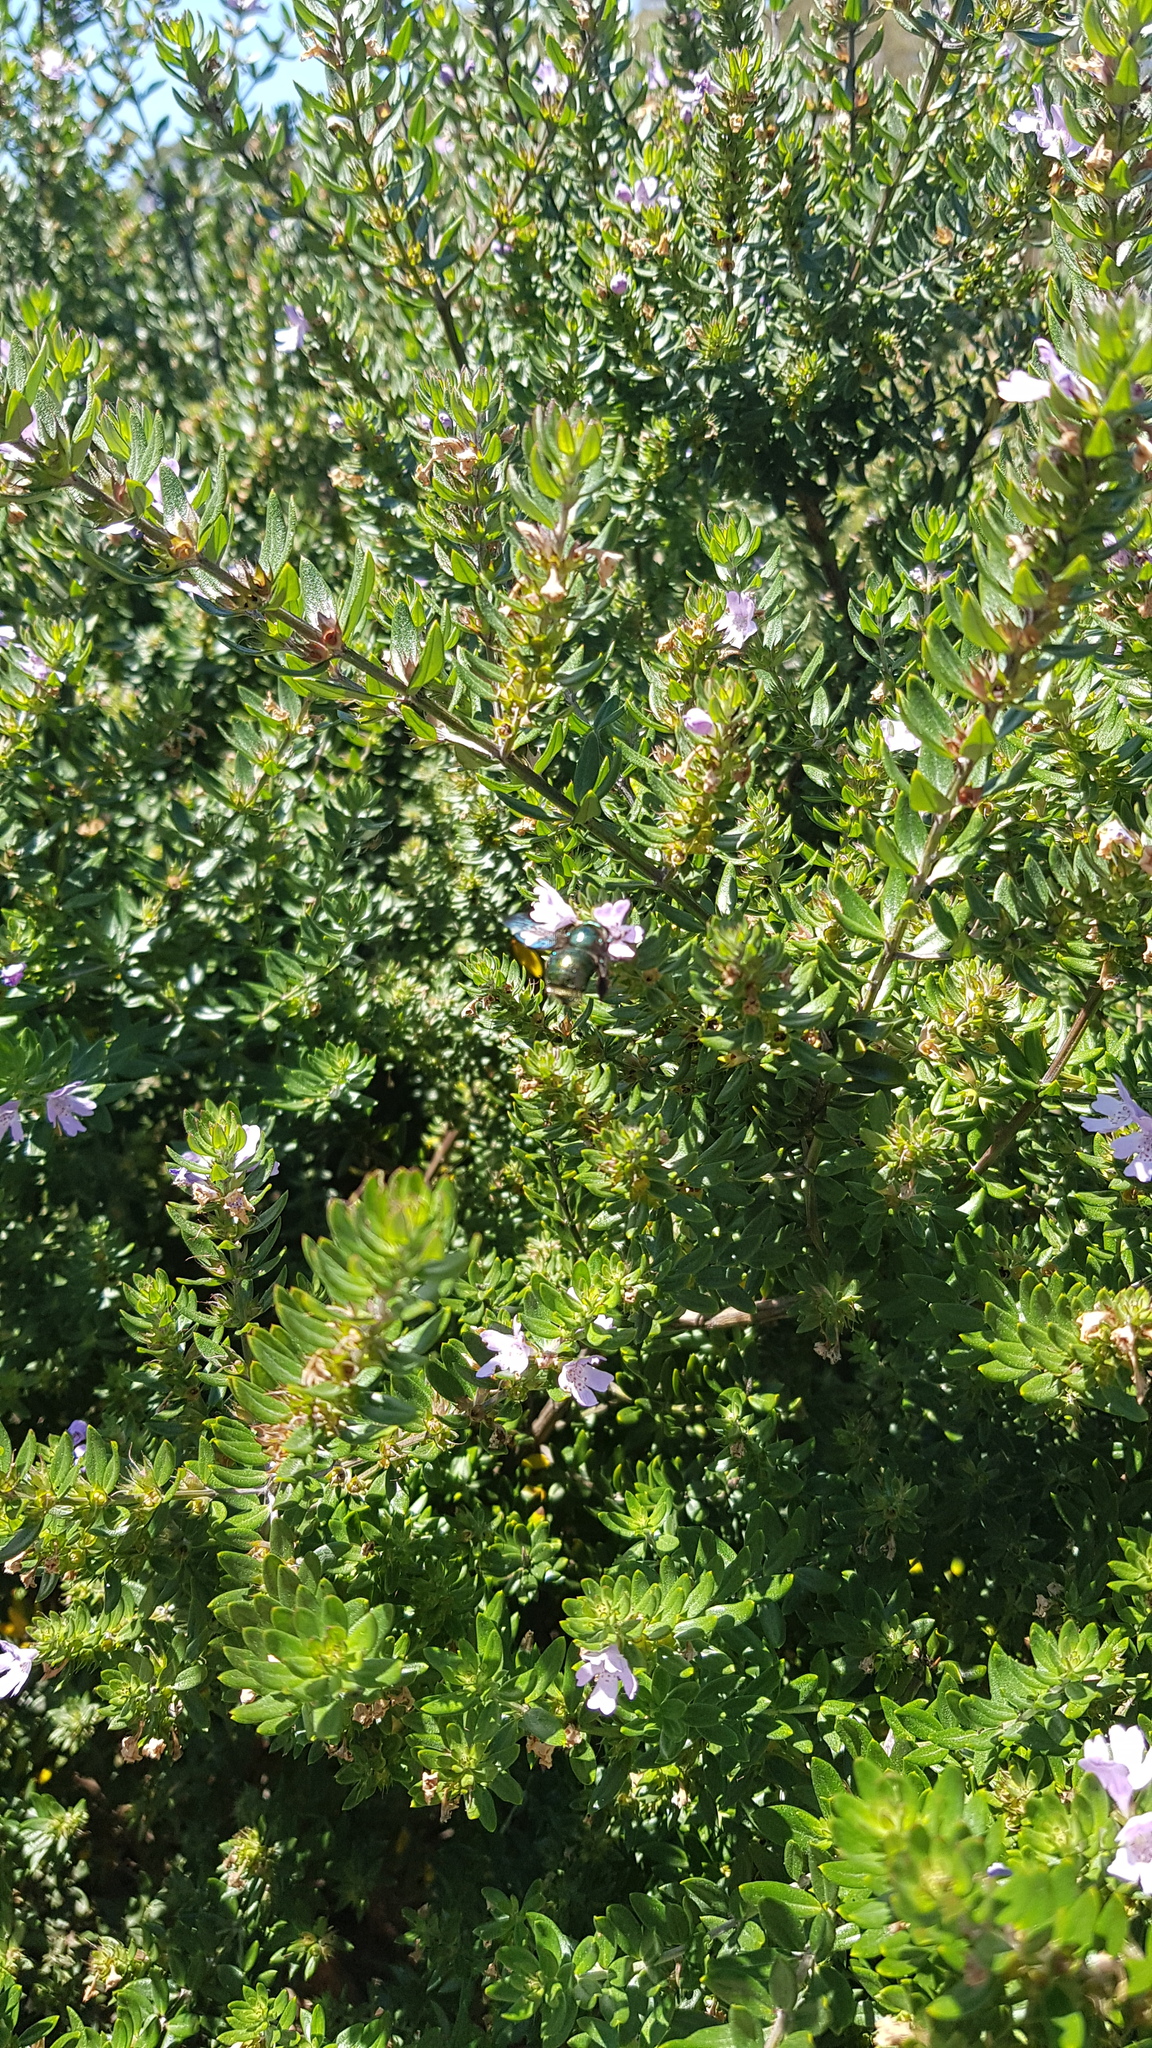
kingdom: Animalia
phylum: Arthropoda
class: Insecta
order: Hymenoptera
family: Apidae
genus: Xylocopa
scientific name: Xylocopa aeratus
